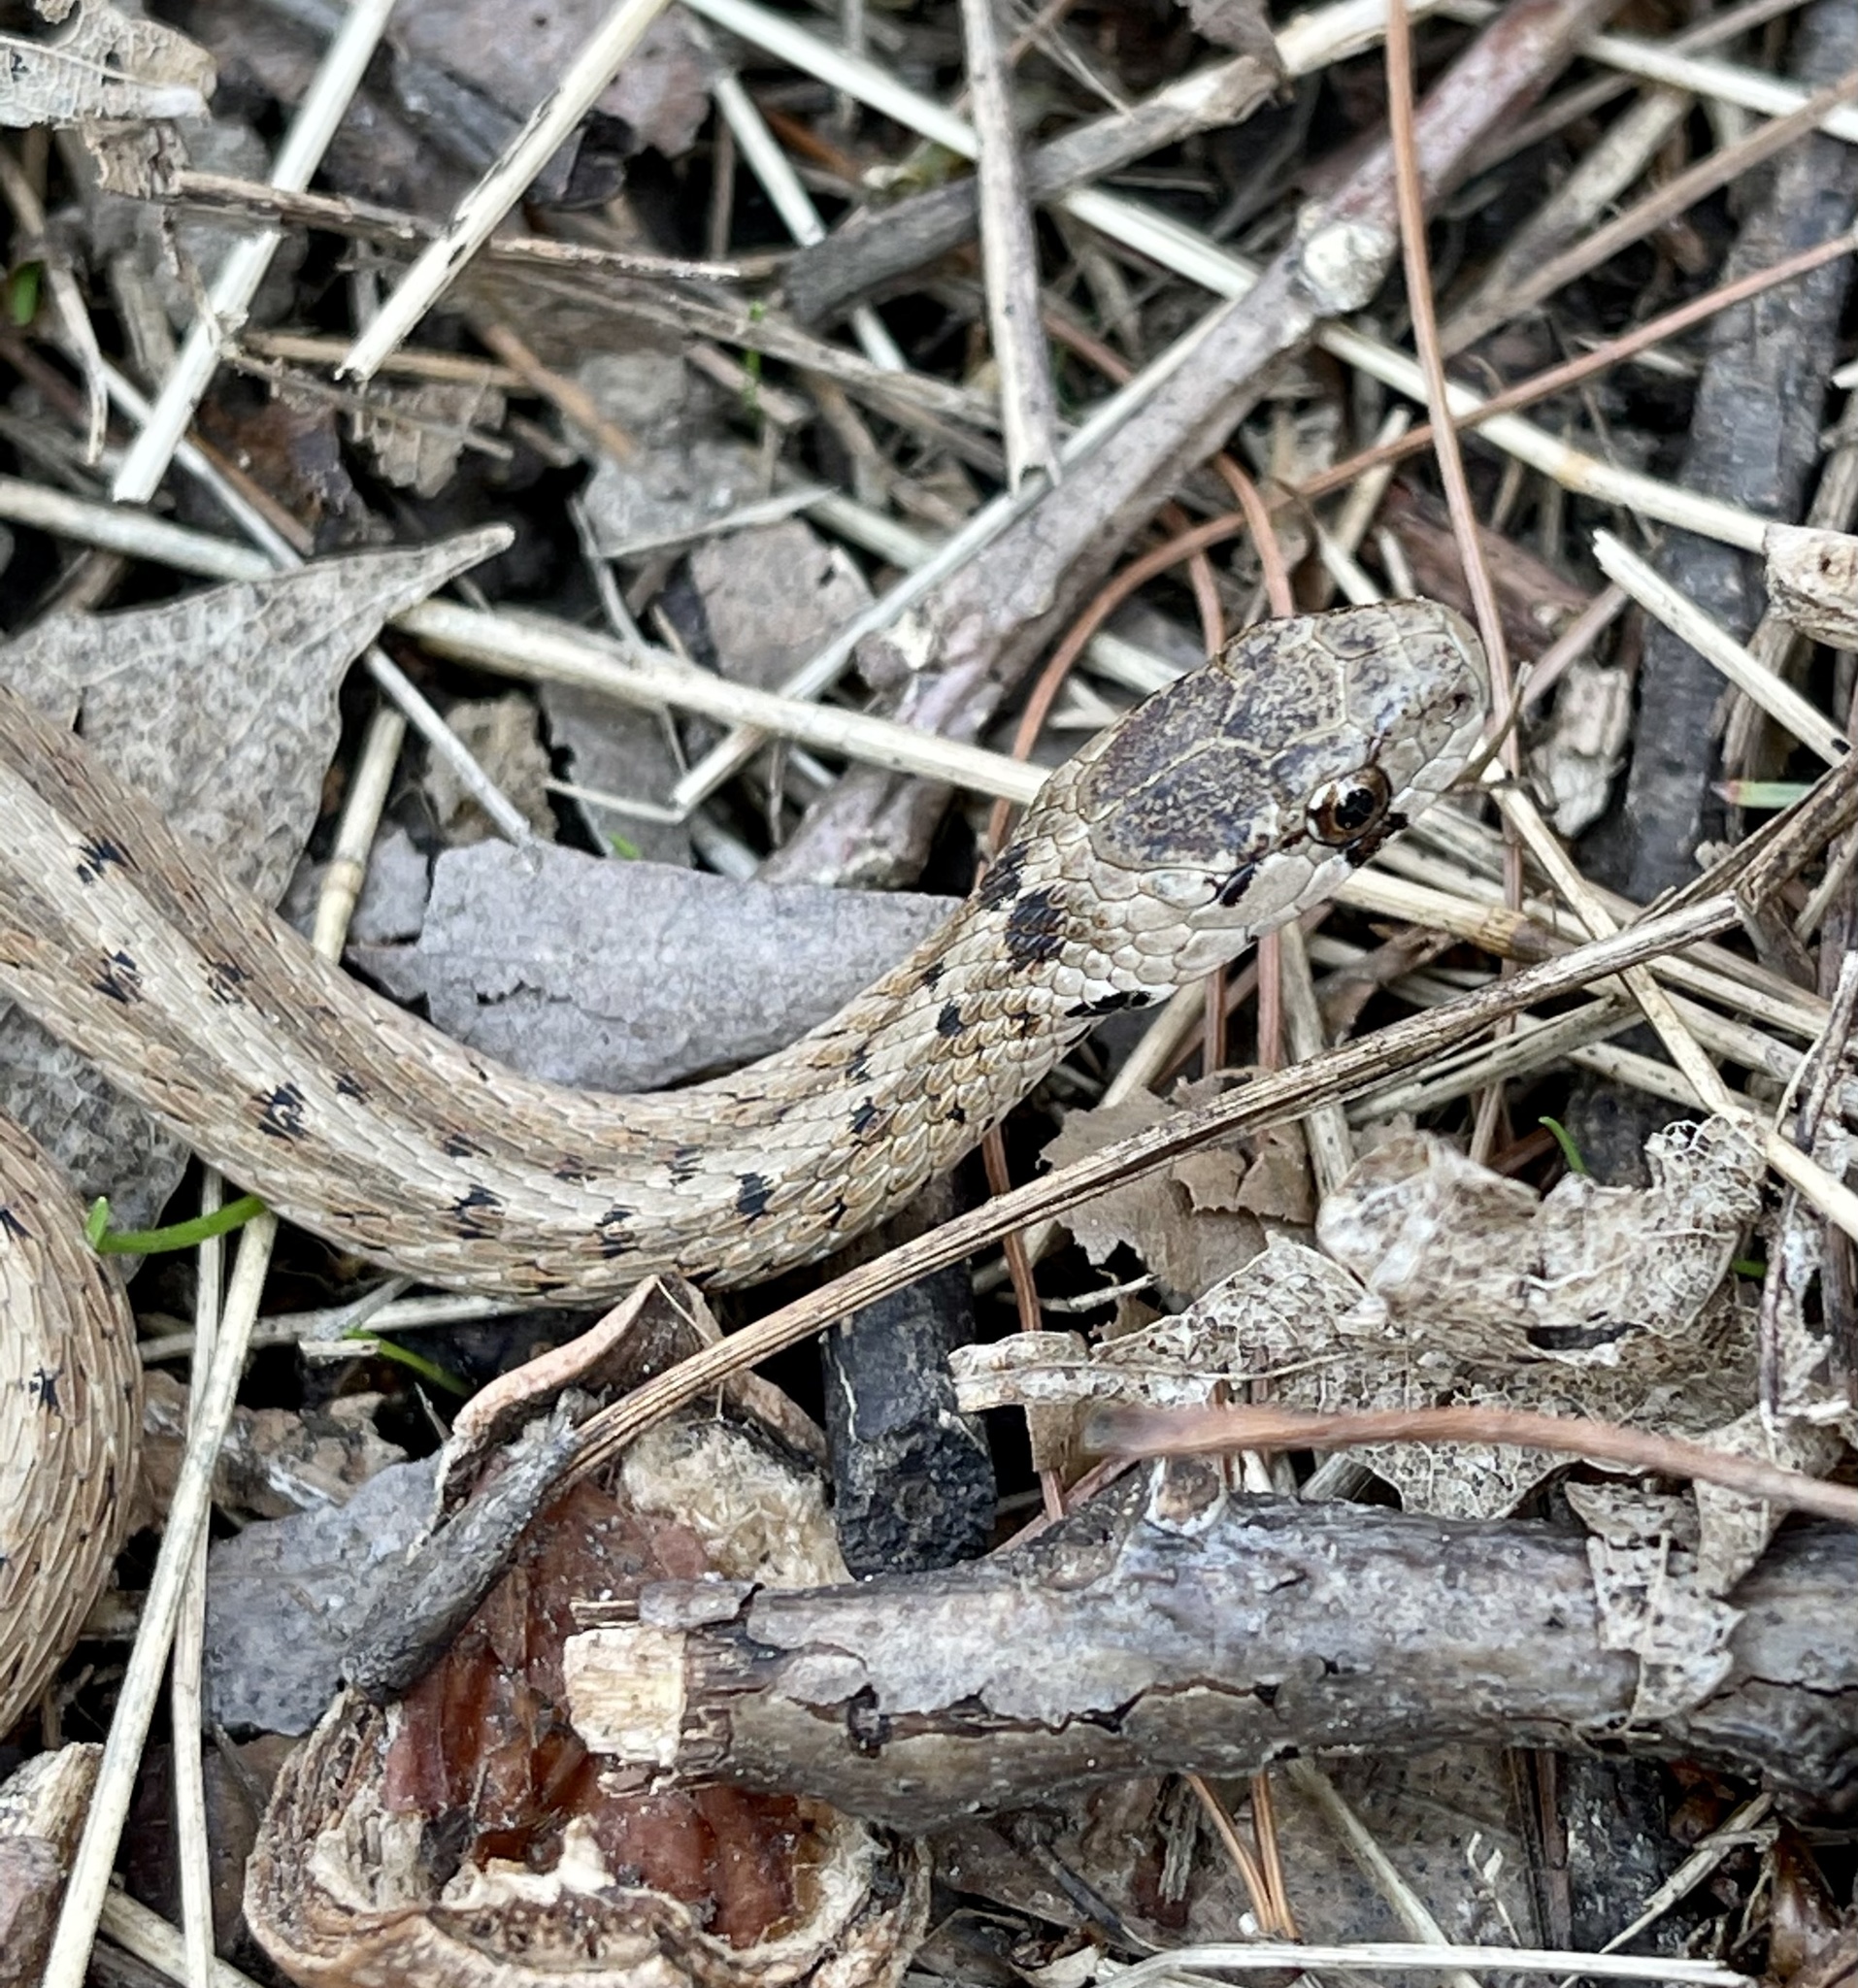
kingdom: Animalia
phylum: Chordata
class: Squamata
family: Colubridae
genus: Storeria
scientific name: Storeria dekayi
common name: (dekay’s) brown snake
